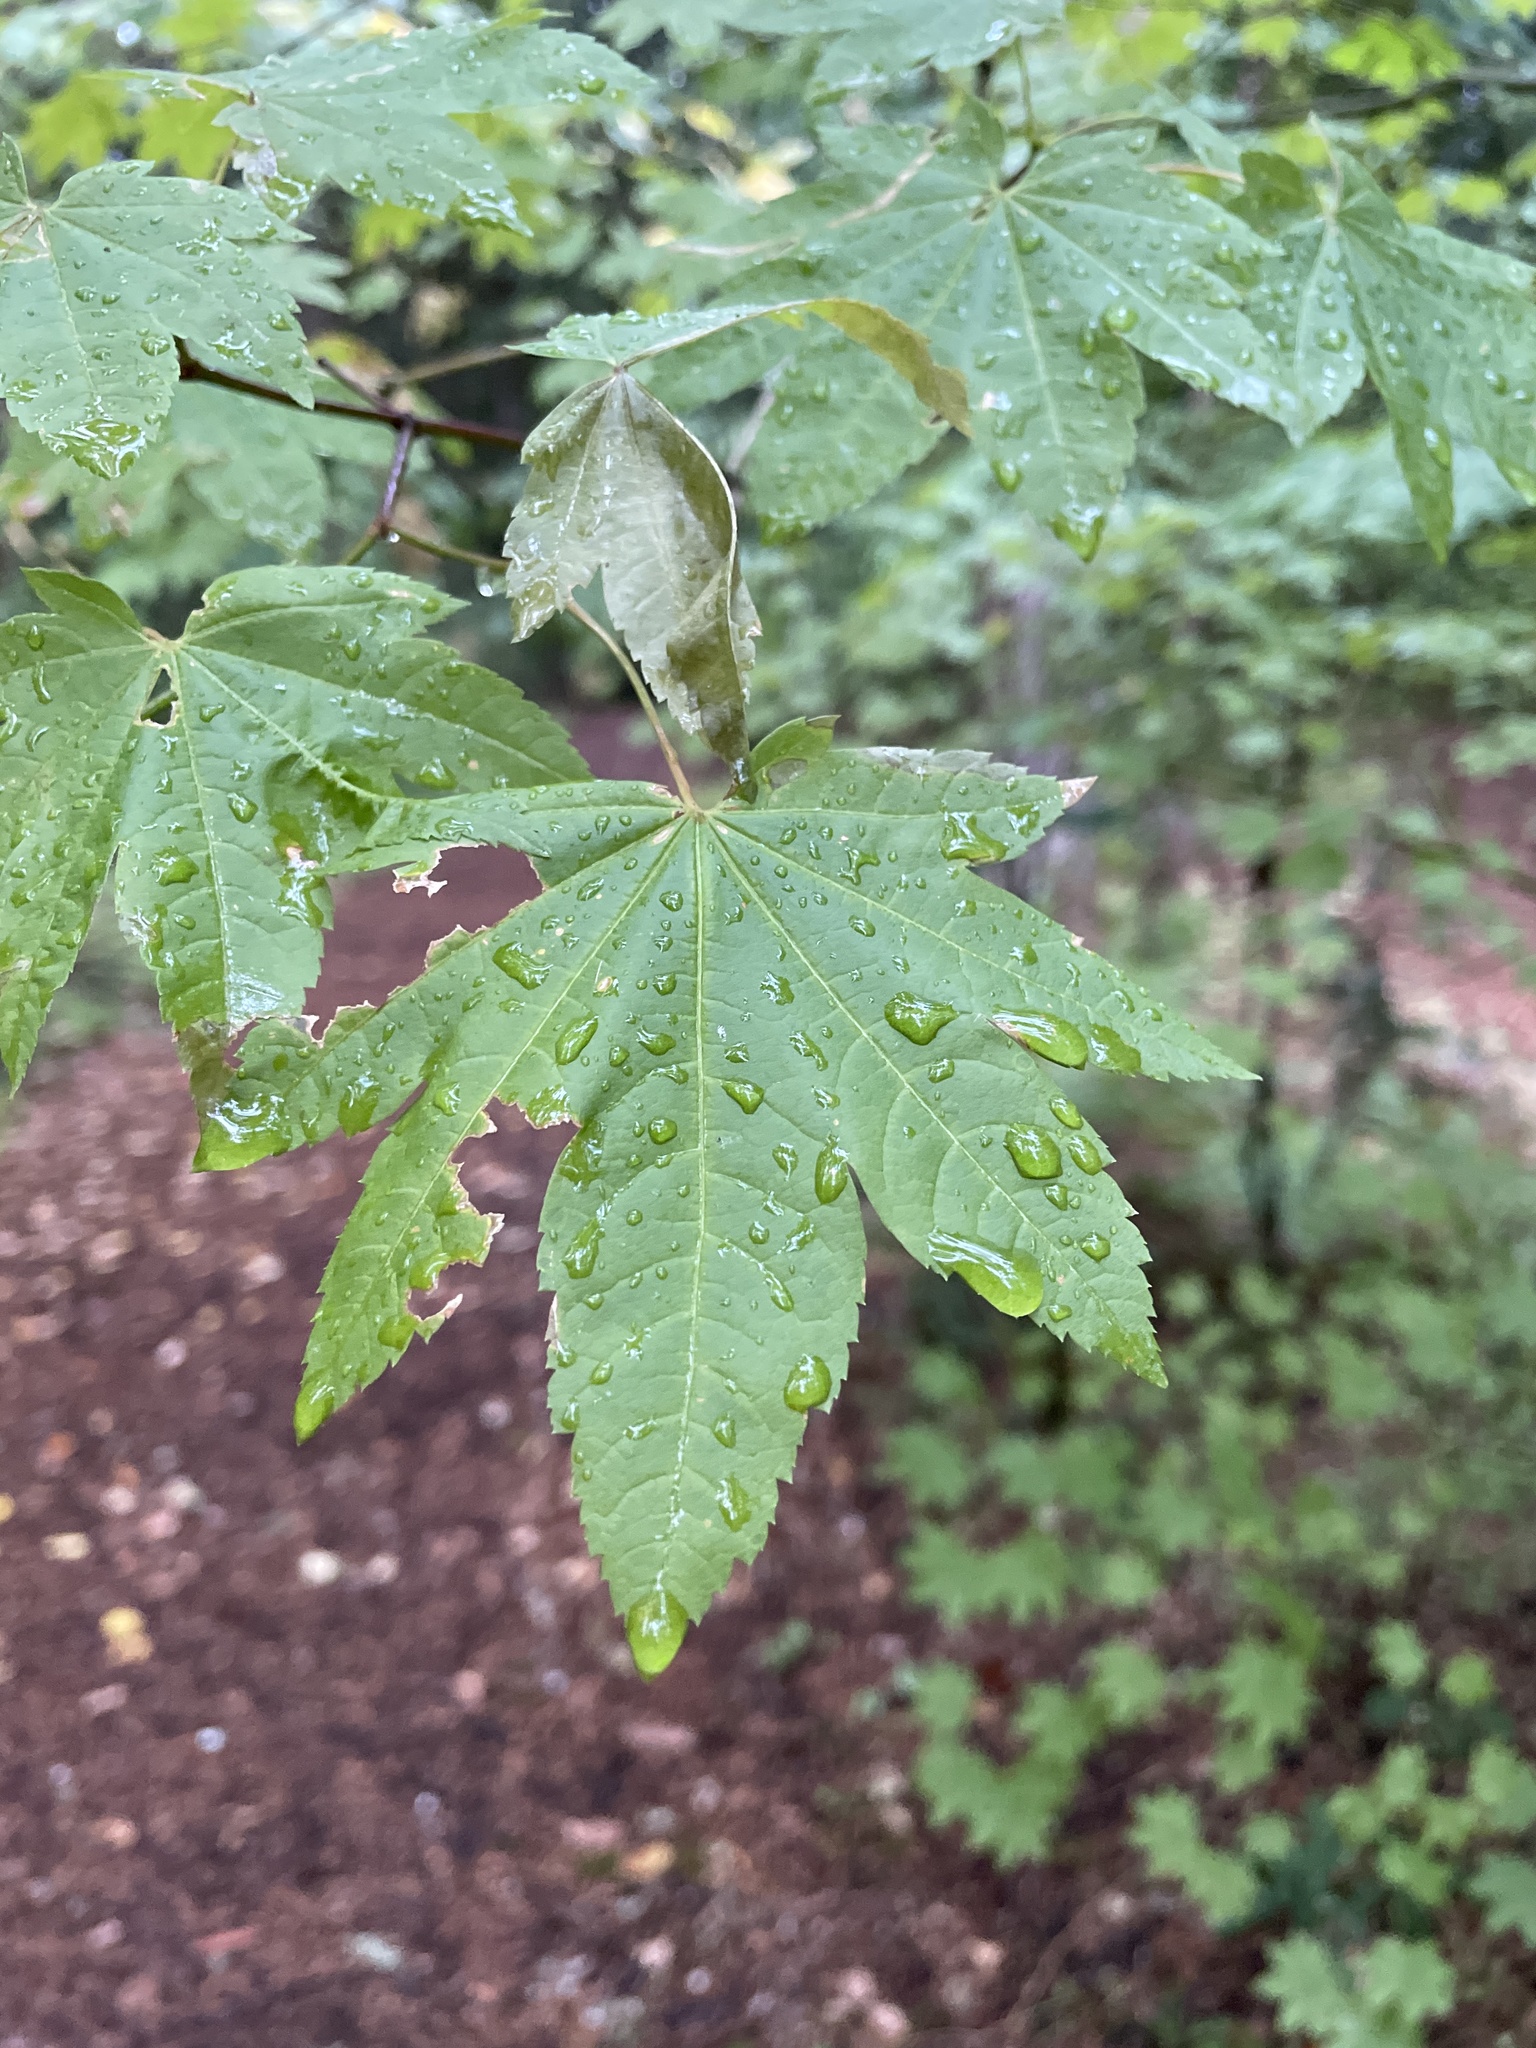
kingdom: Plantae
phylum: Tracheophyta
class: Magnoliopsida
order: Sapindales
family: Sapindaceae
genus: Acer
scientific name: Acer circinatum
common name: Vine maple
